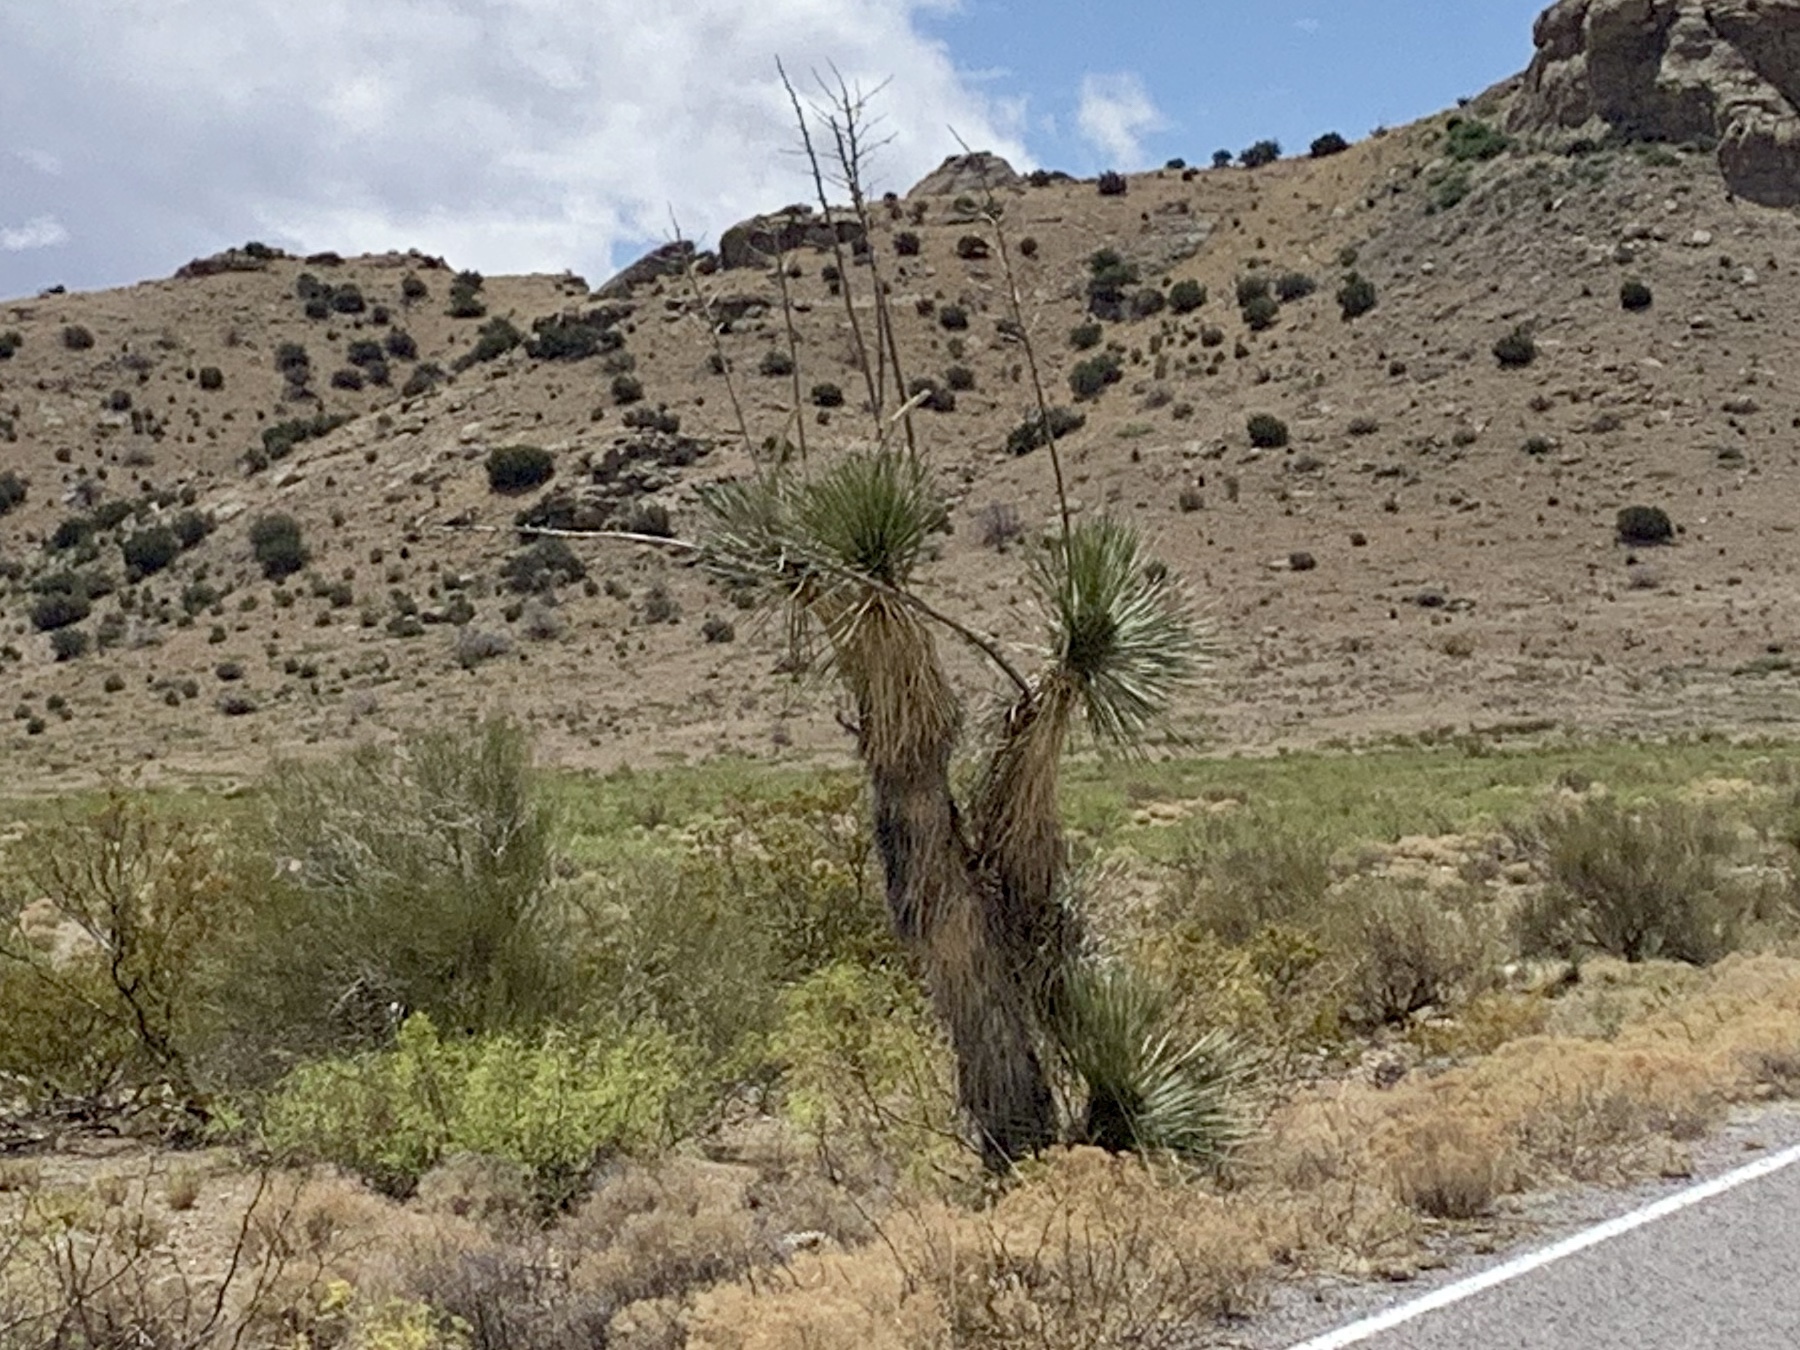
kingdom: Plantae
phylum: Tracheophyta
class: Liliopsida
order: Asparagales
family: Asparagaceae
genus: Yucca
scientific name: Yucca elata
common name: Palmella
